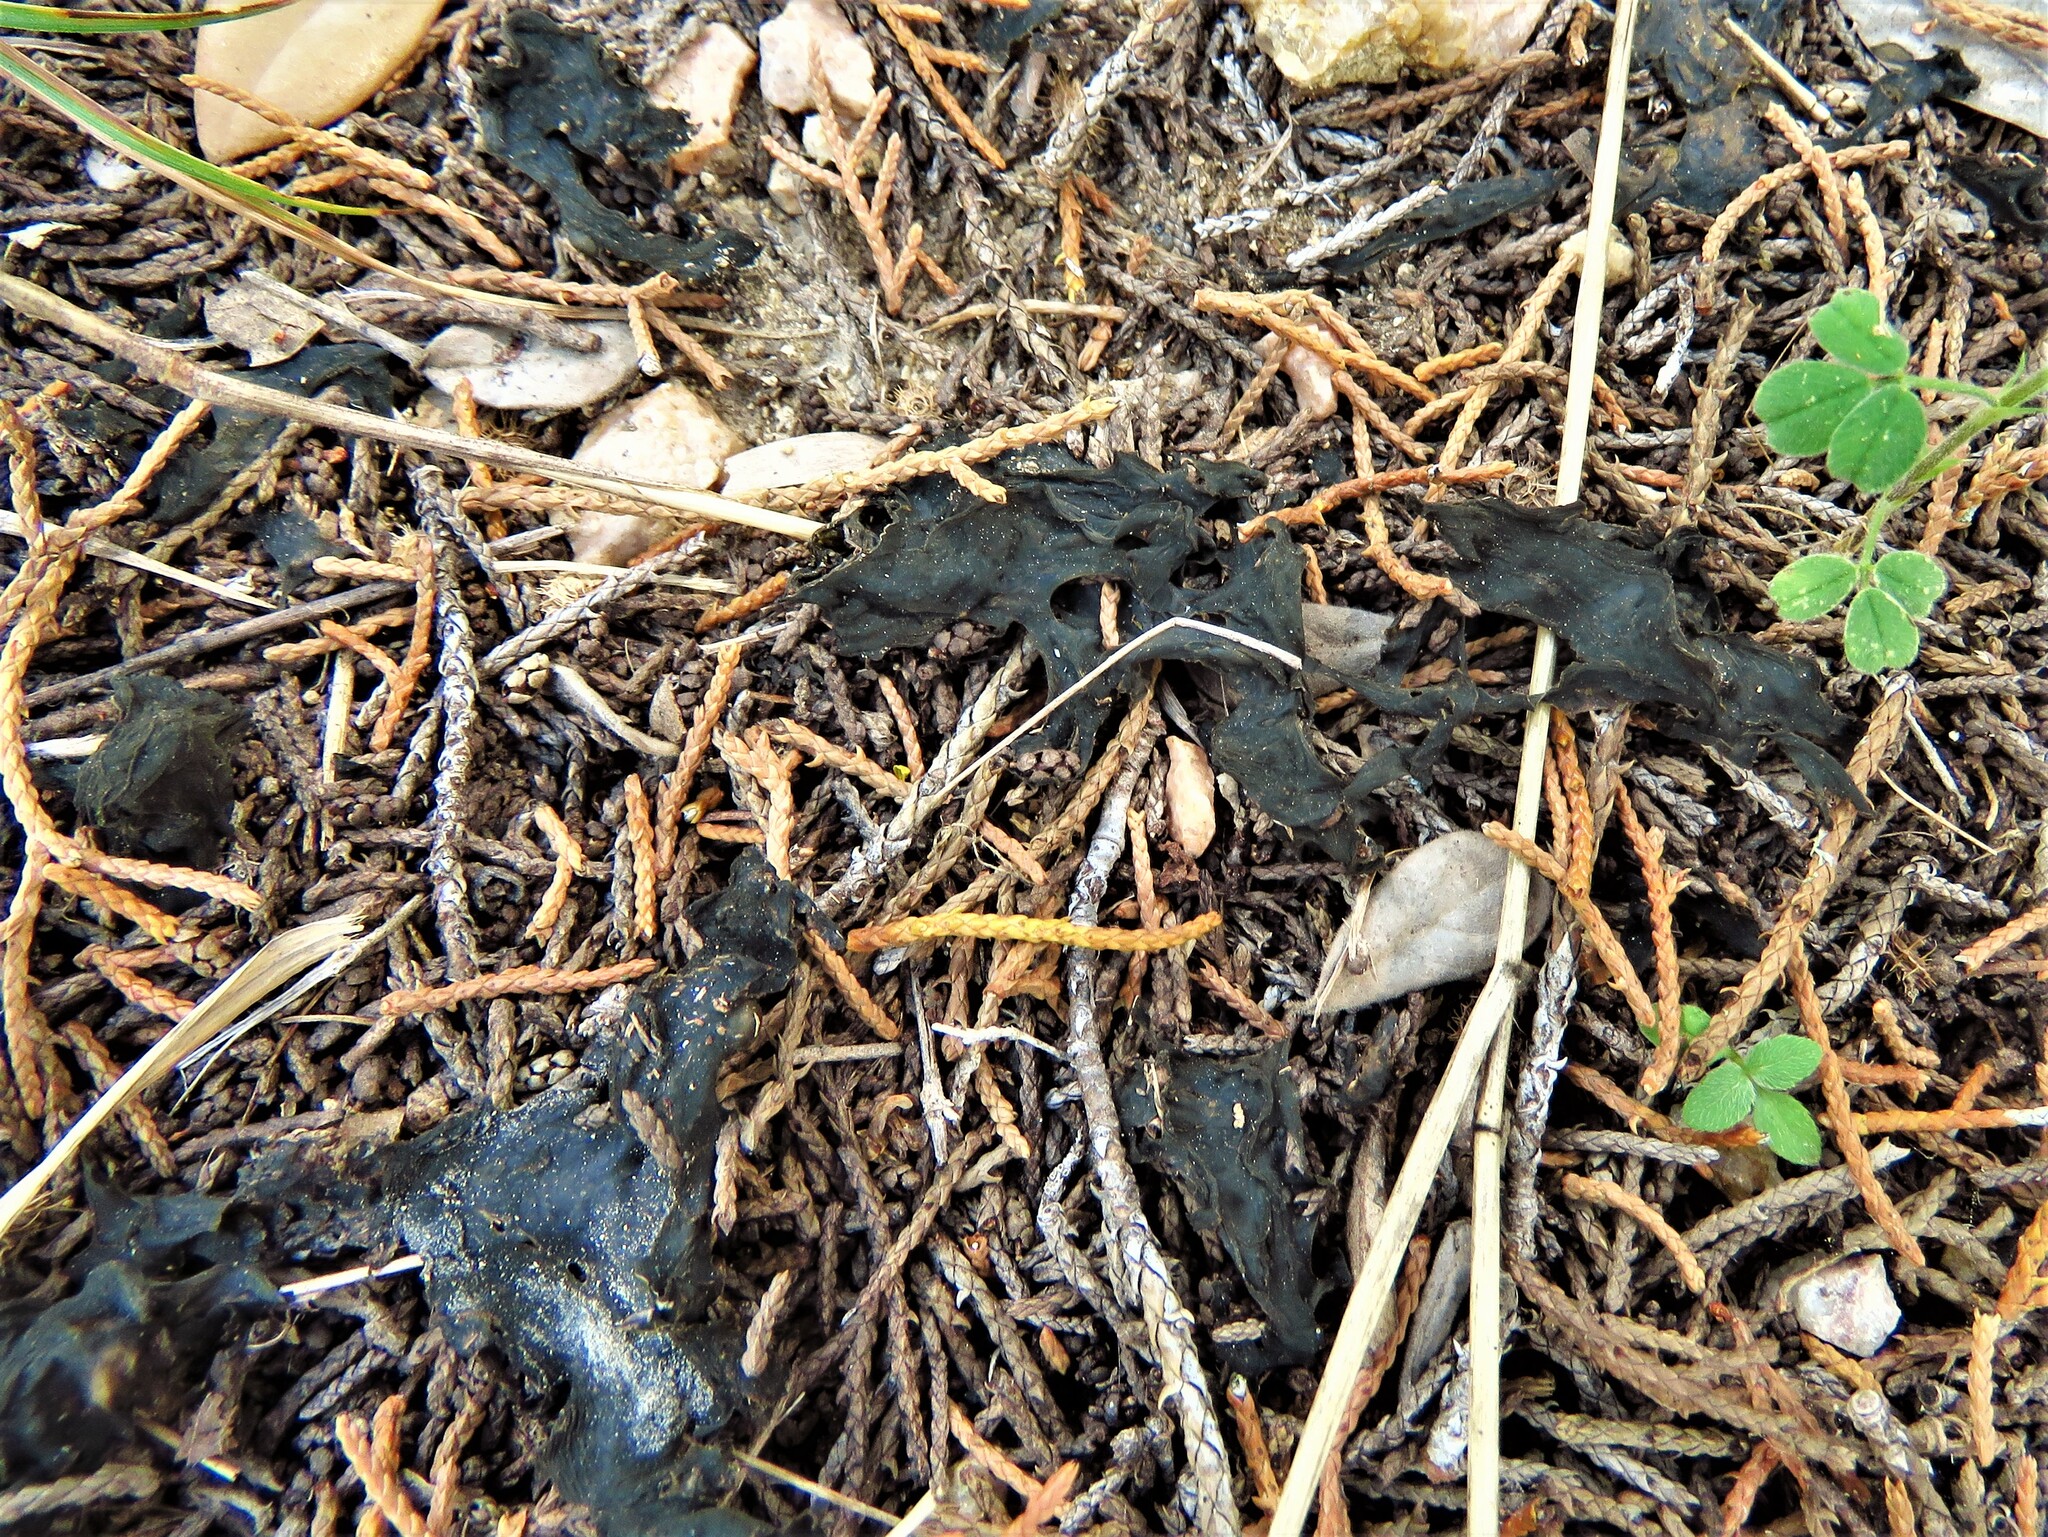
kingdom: Bacteria
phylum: Cyanobacteria
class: Cyanobacteriia
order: Cyanobacteriales
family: Nostocaceae
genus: Nostoc
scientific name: Nostoc commune
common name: Star jelly
